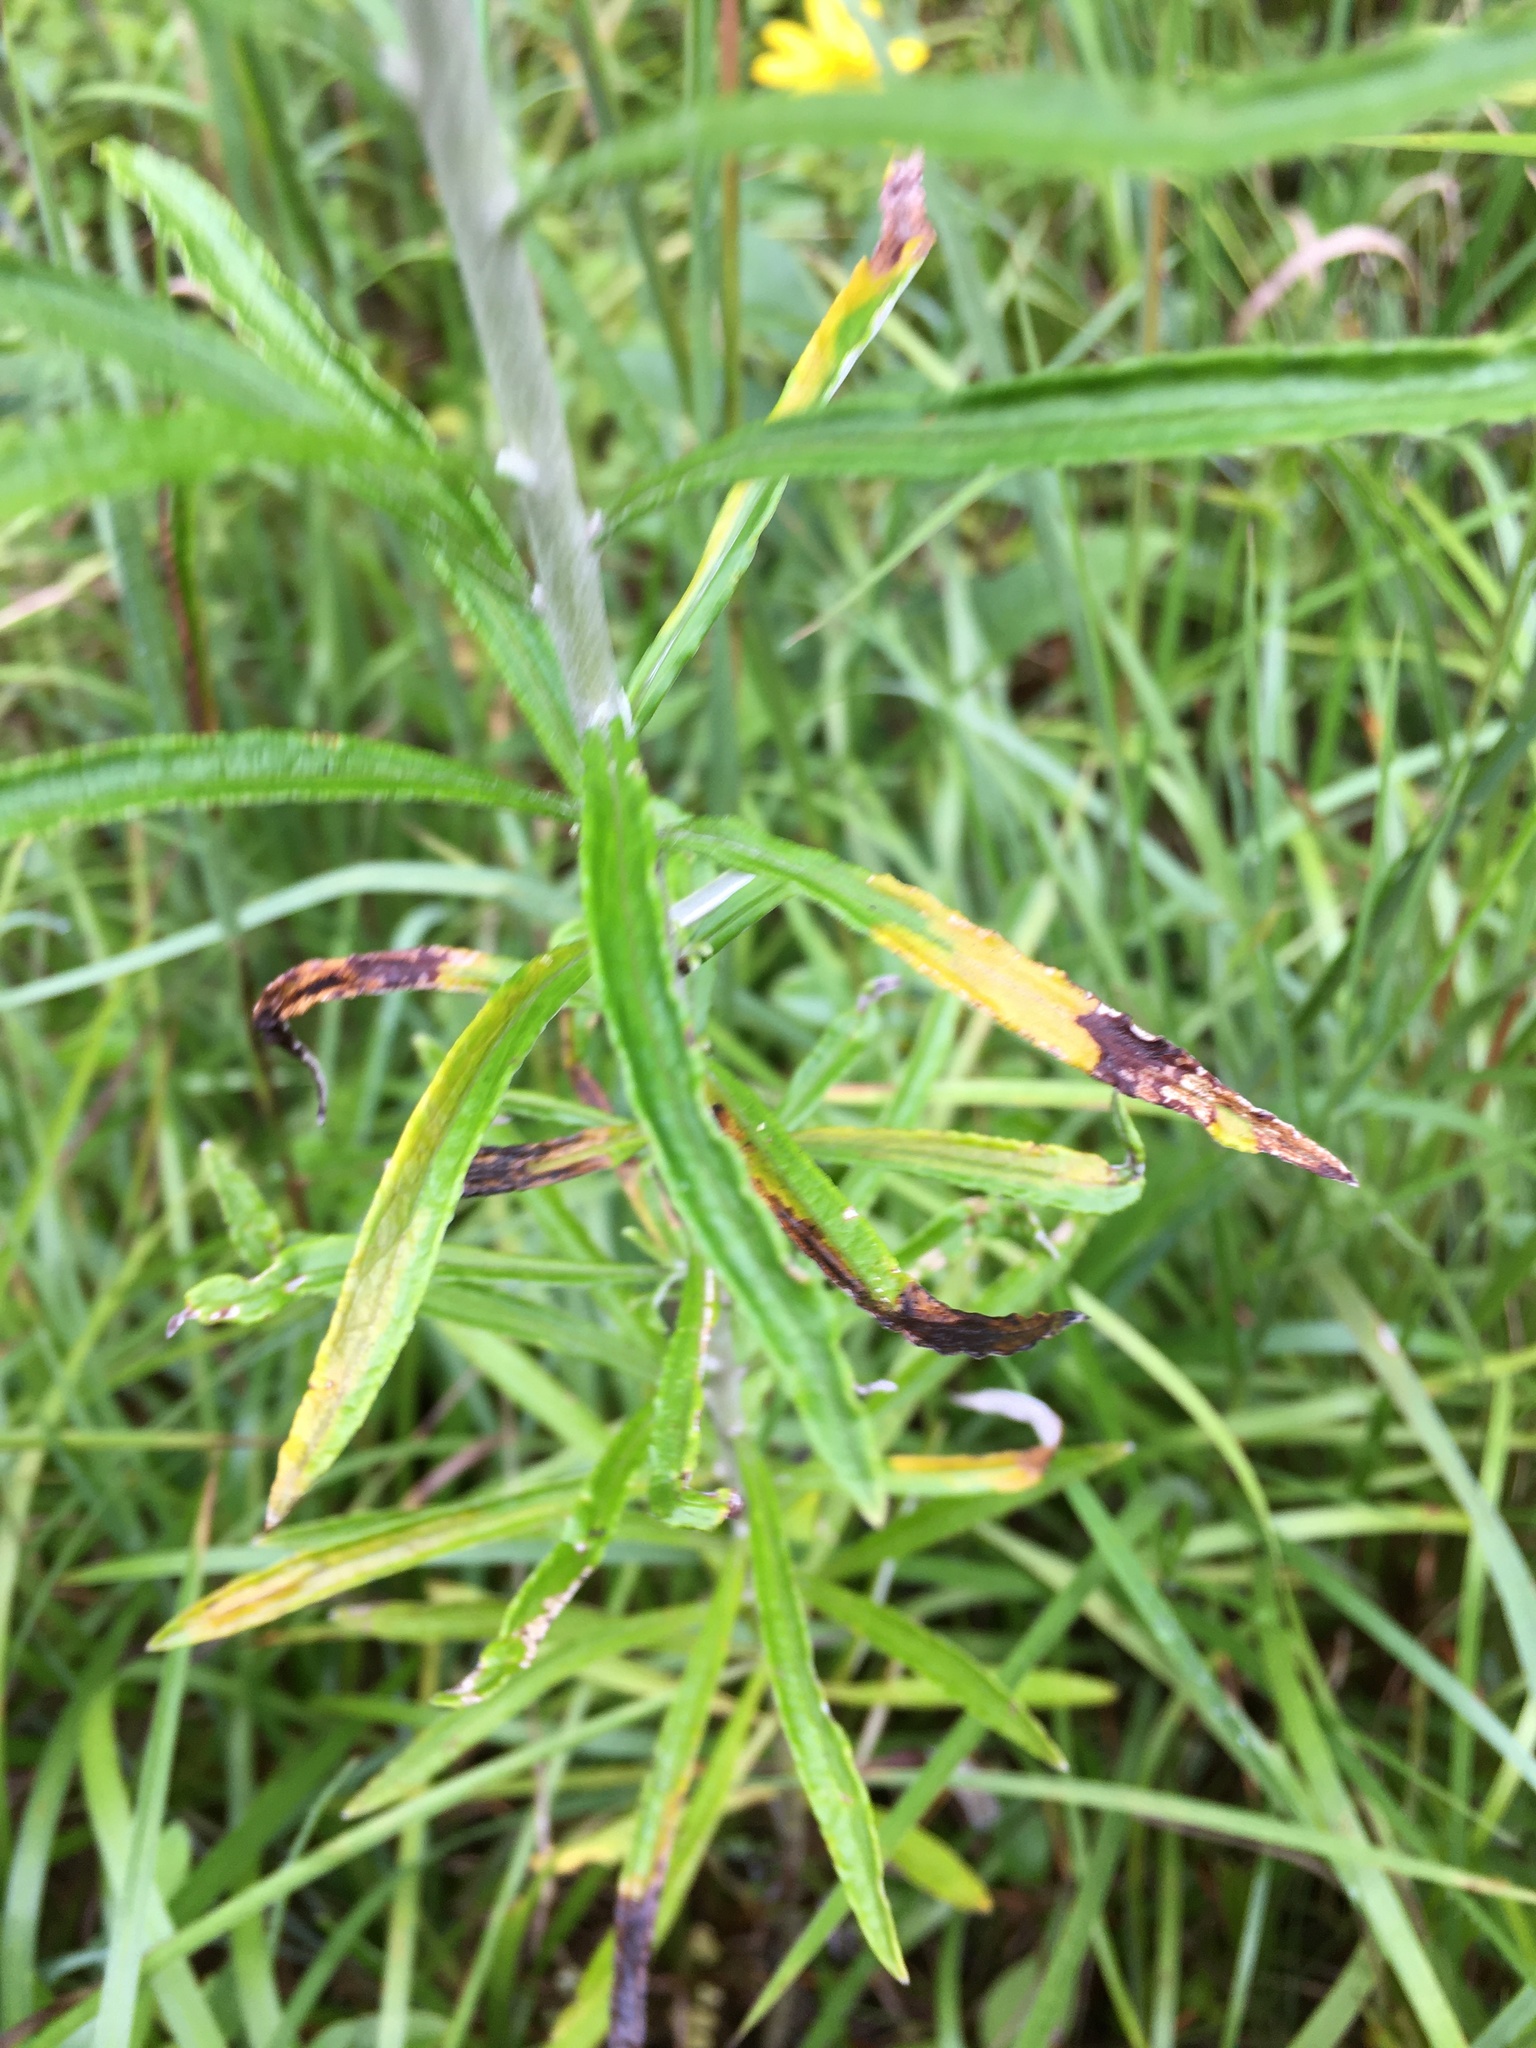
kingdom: Plantae
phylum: Tracheophyta
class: Magnoliopsida
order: Asterales
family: Asteraceae
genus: Pseudognaphalium
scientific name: Pseudognaphalium obtusifolium
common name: Eastern rabbit-tobacco
